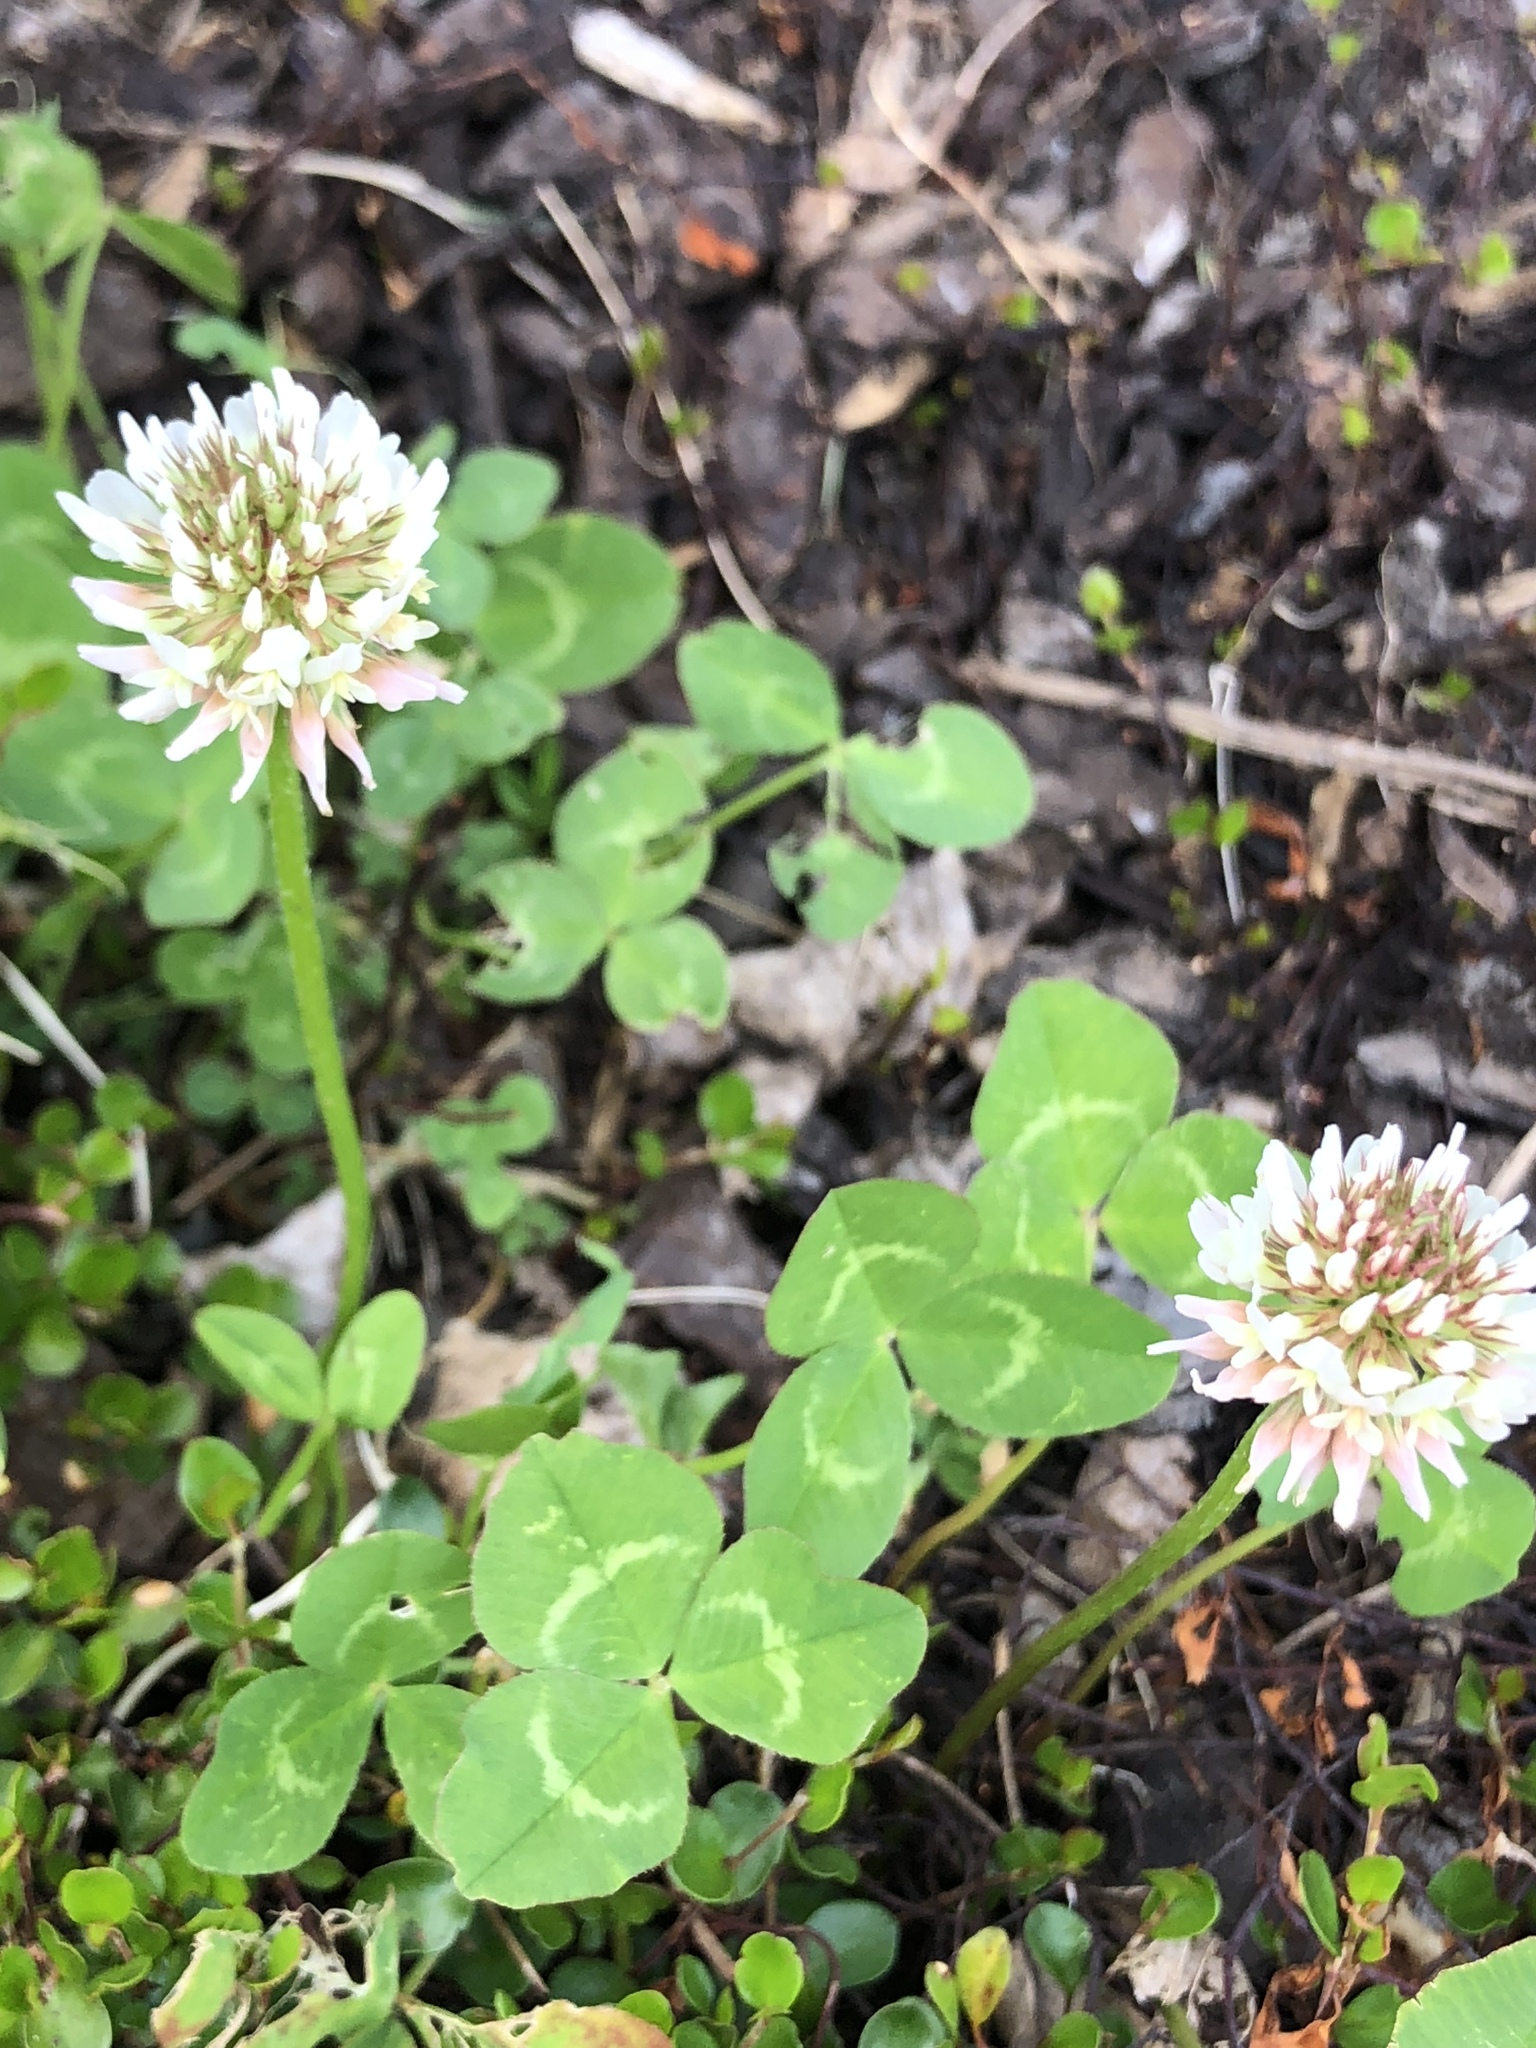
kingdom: Plantae
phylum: Tracheophyta
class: Magnoliopsida
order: Fabales
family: Fabaceae
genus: Trifolium
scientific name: Trifolium repens
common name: White clover
